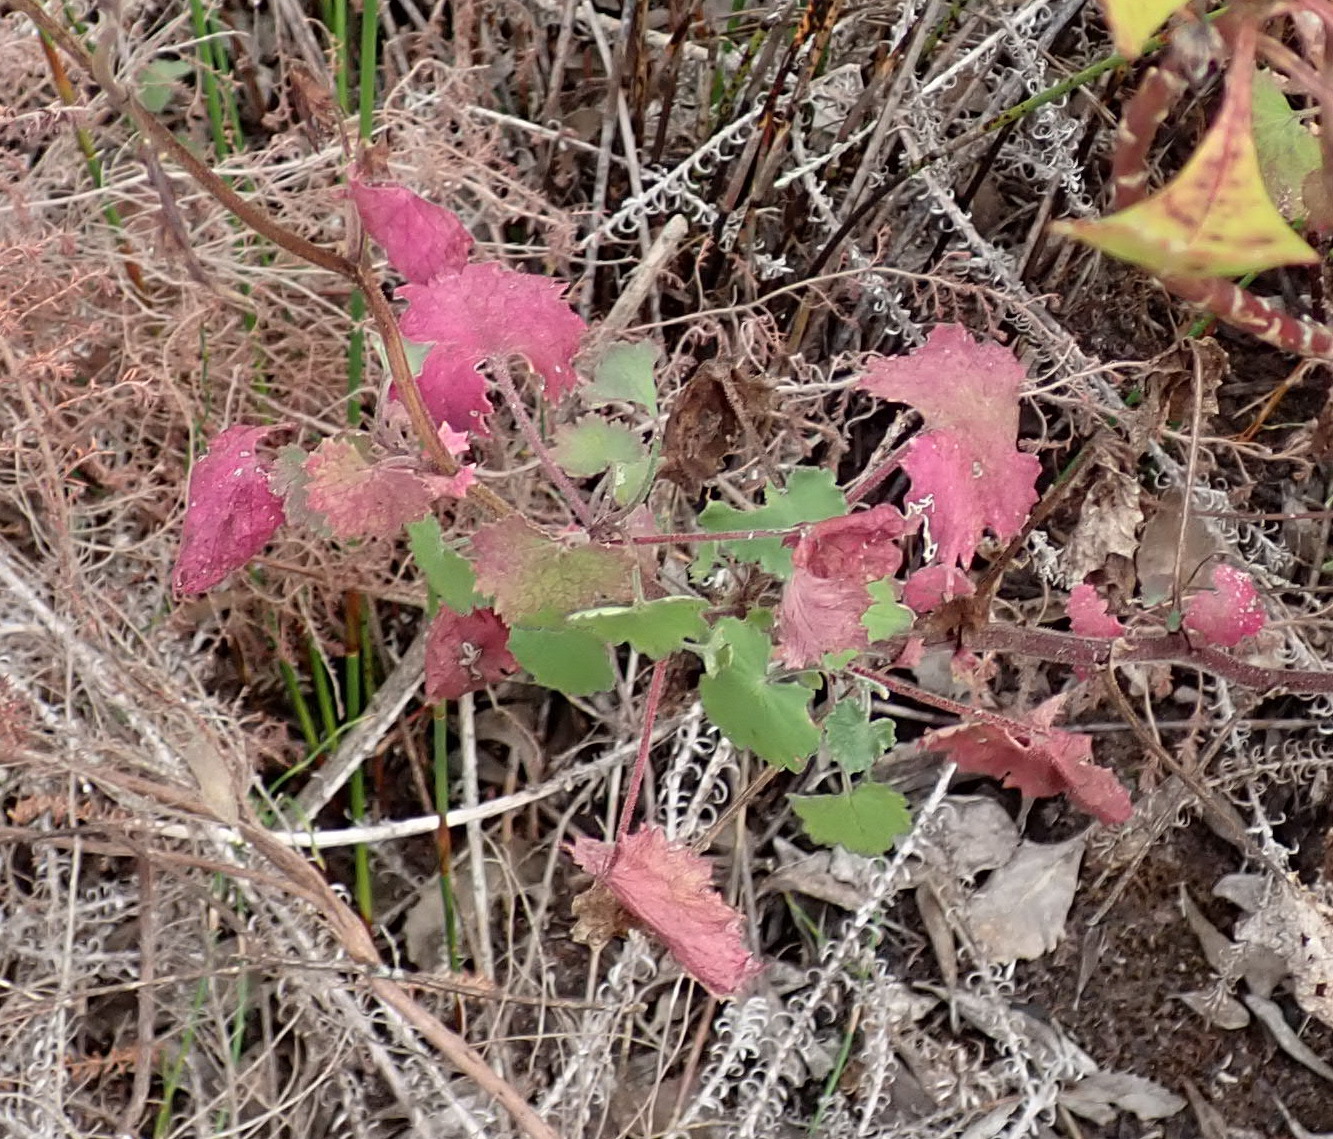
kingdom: Plantae
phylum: Tracheophyta
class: Magnoliopsida
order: Asterales
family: Asteraceae
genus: Cineraria
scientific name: Cineraria geifolia
